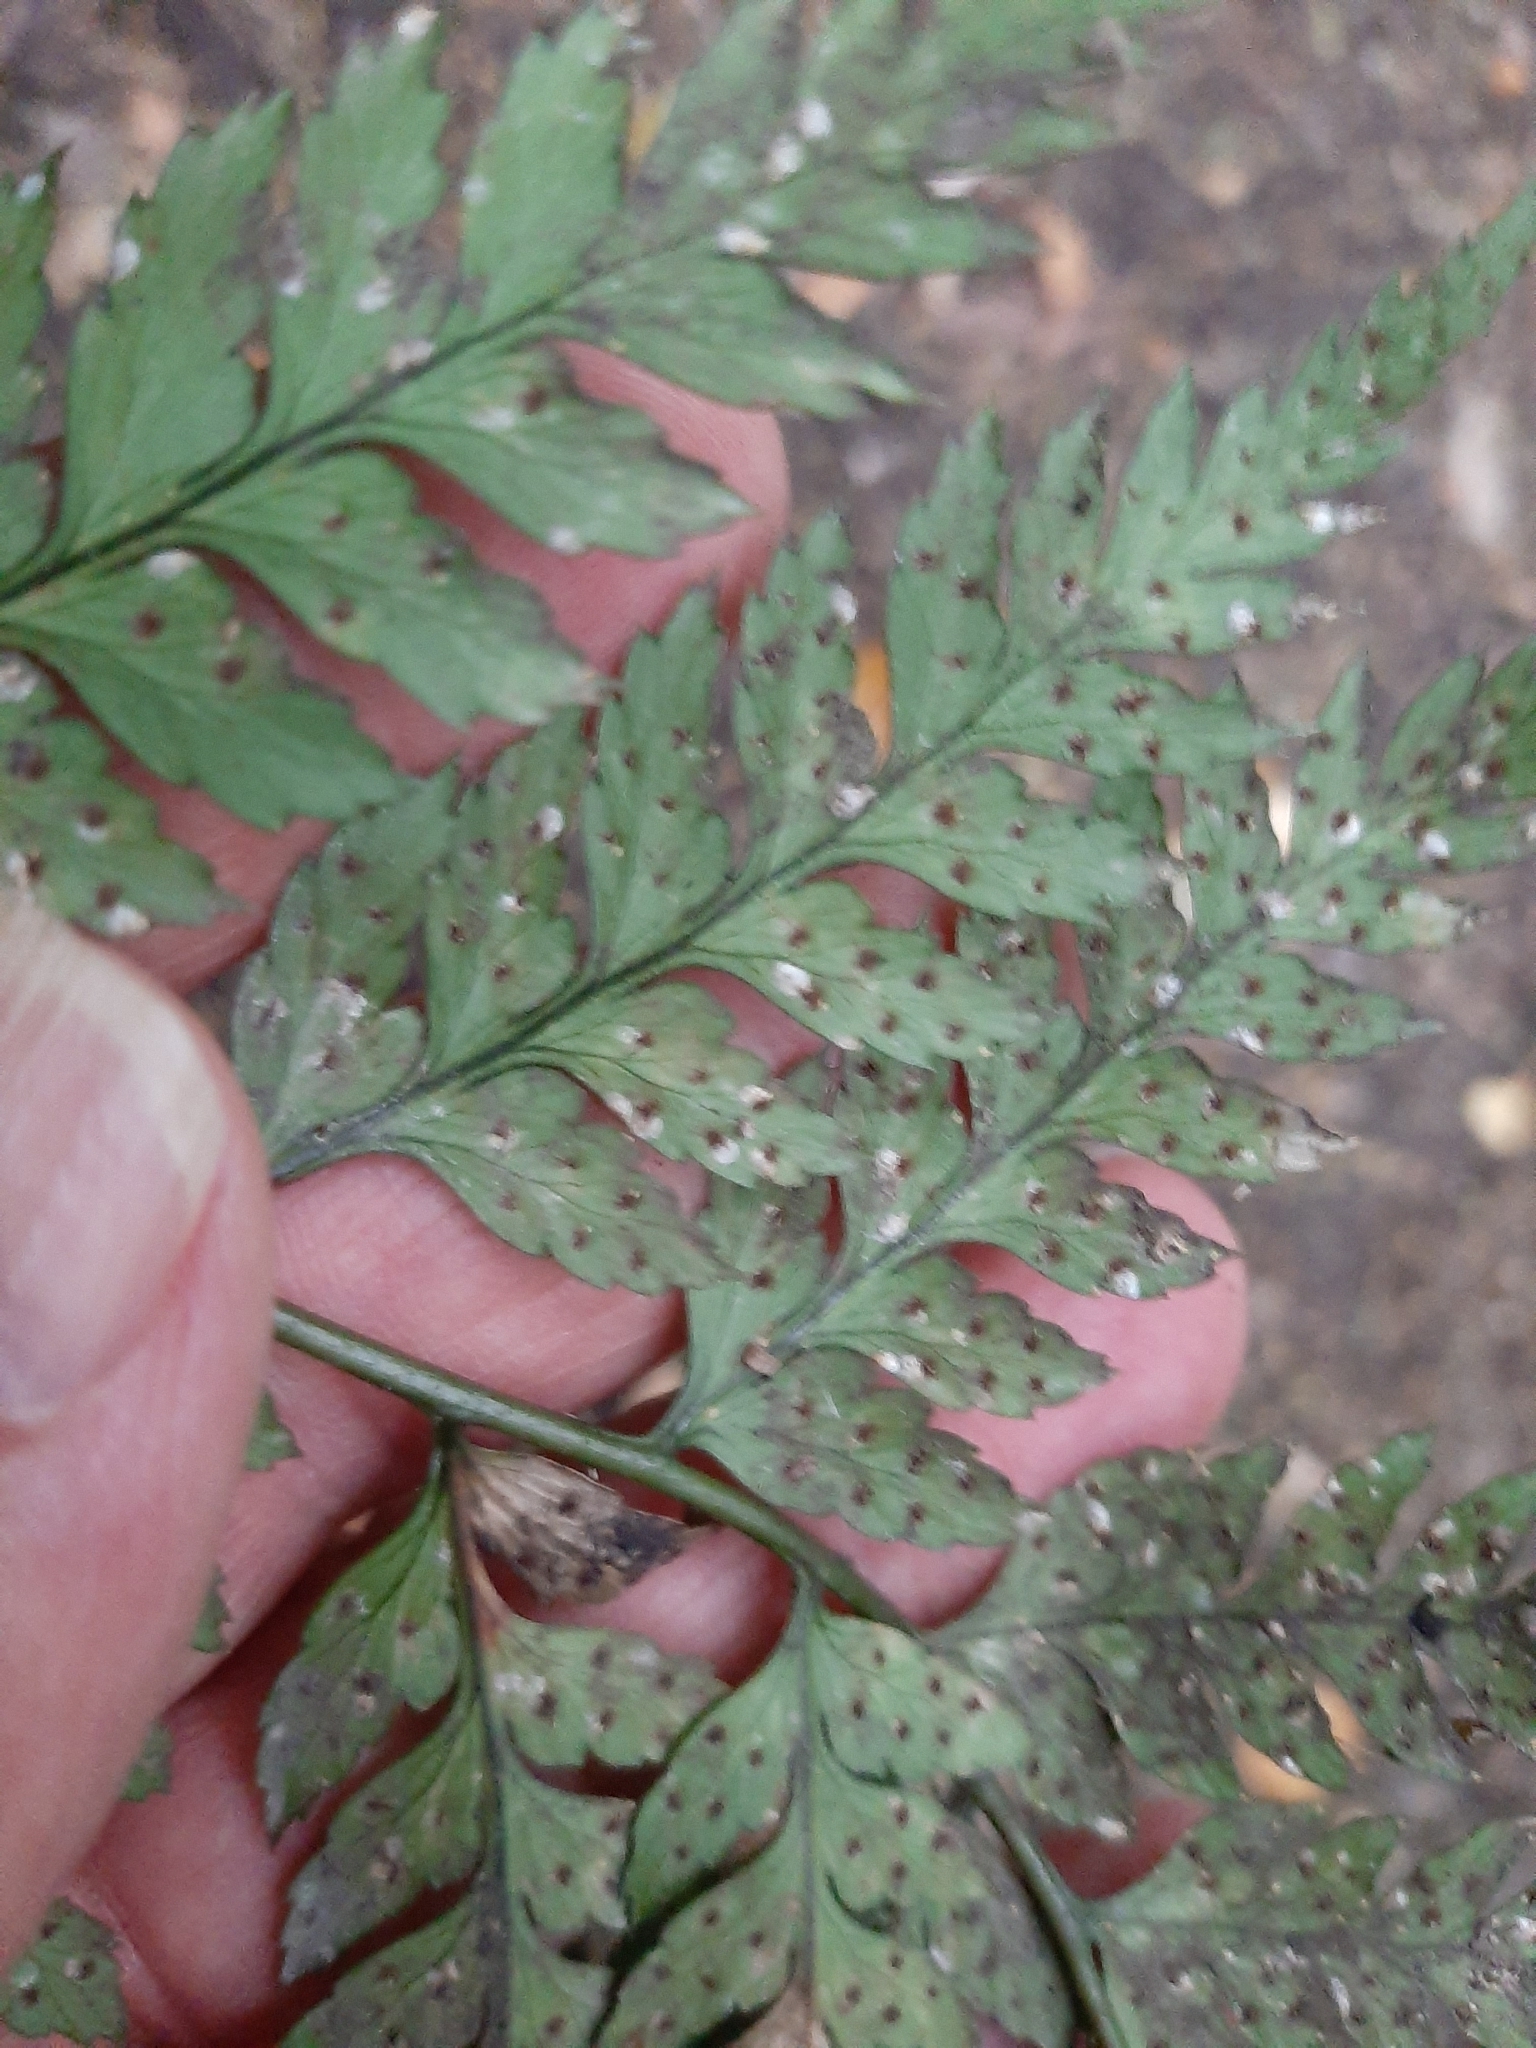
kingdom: Plantae
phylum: Tracheophyta
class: Polypodiopsida
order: Polypodiales
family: Dryopteridaceae
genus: Polystichum
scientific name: Polystichum neozelandicum
